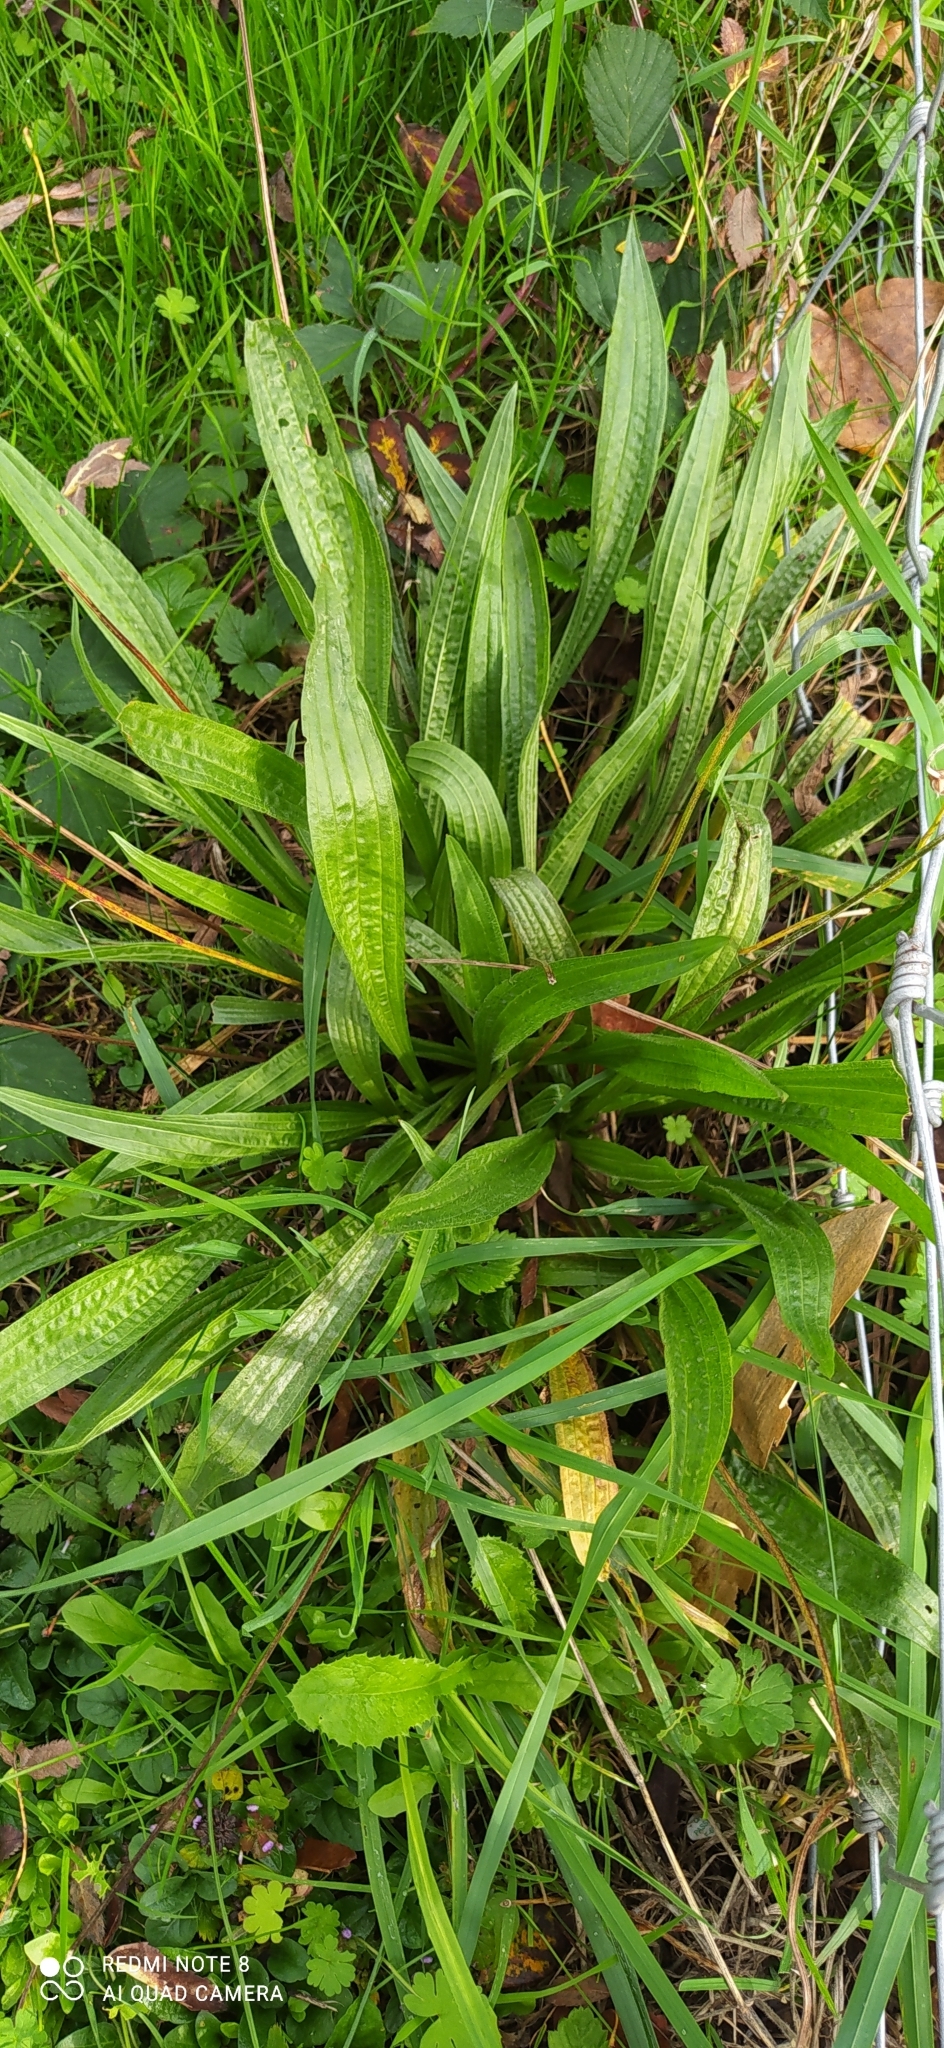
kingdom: Plantae
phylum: Tracheophyta
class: Magnoliopsida
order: Lamiales
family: Plantaginaceae
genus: Plantago
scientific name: Plantago lanceolata
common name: Ribwort plantain
